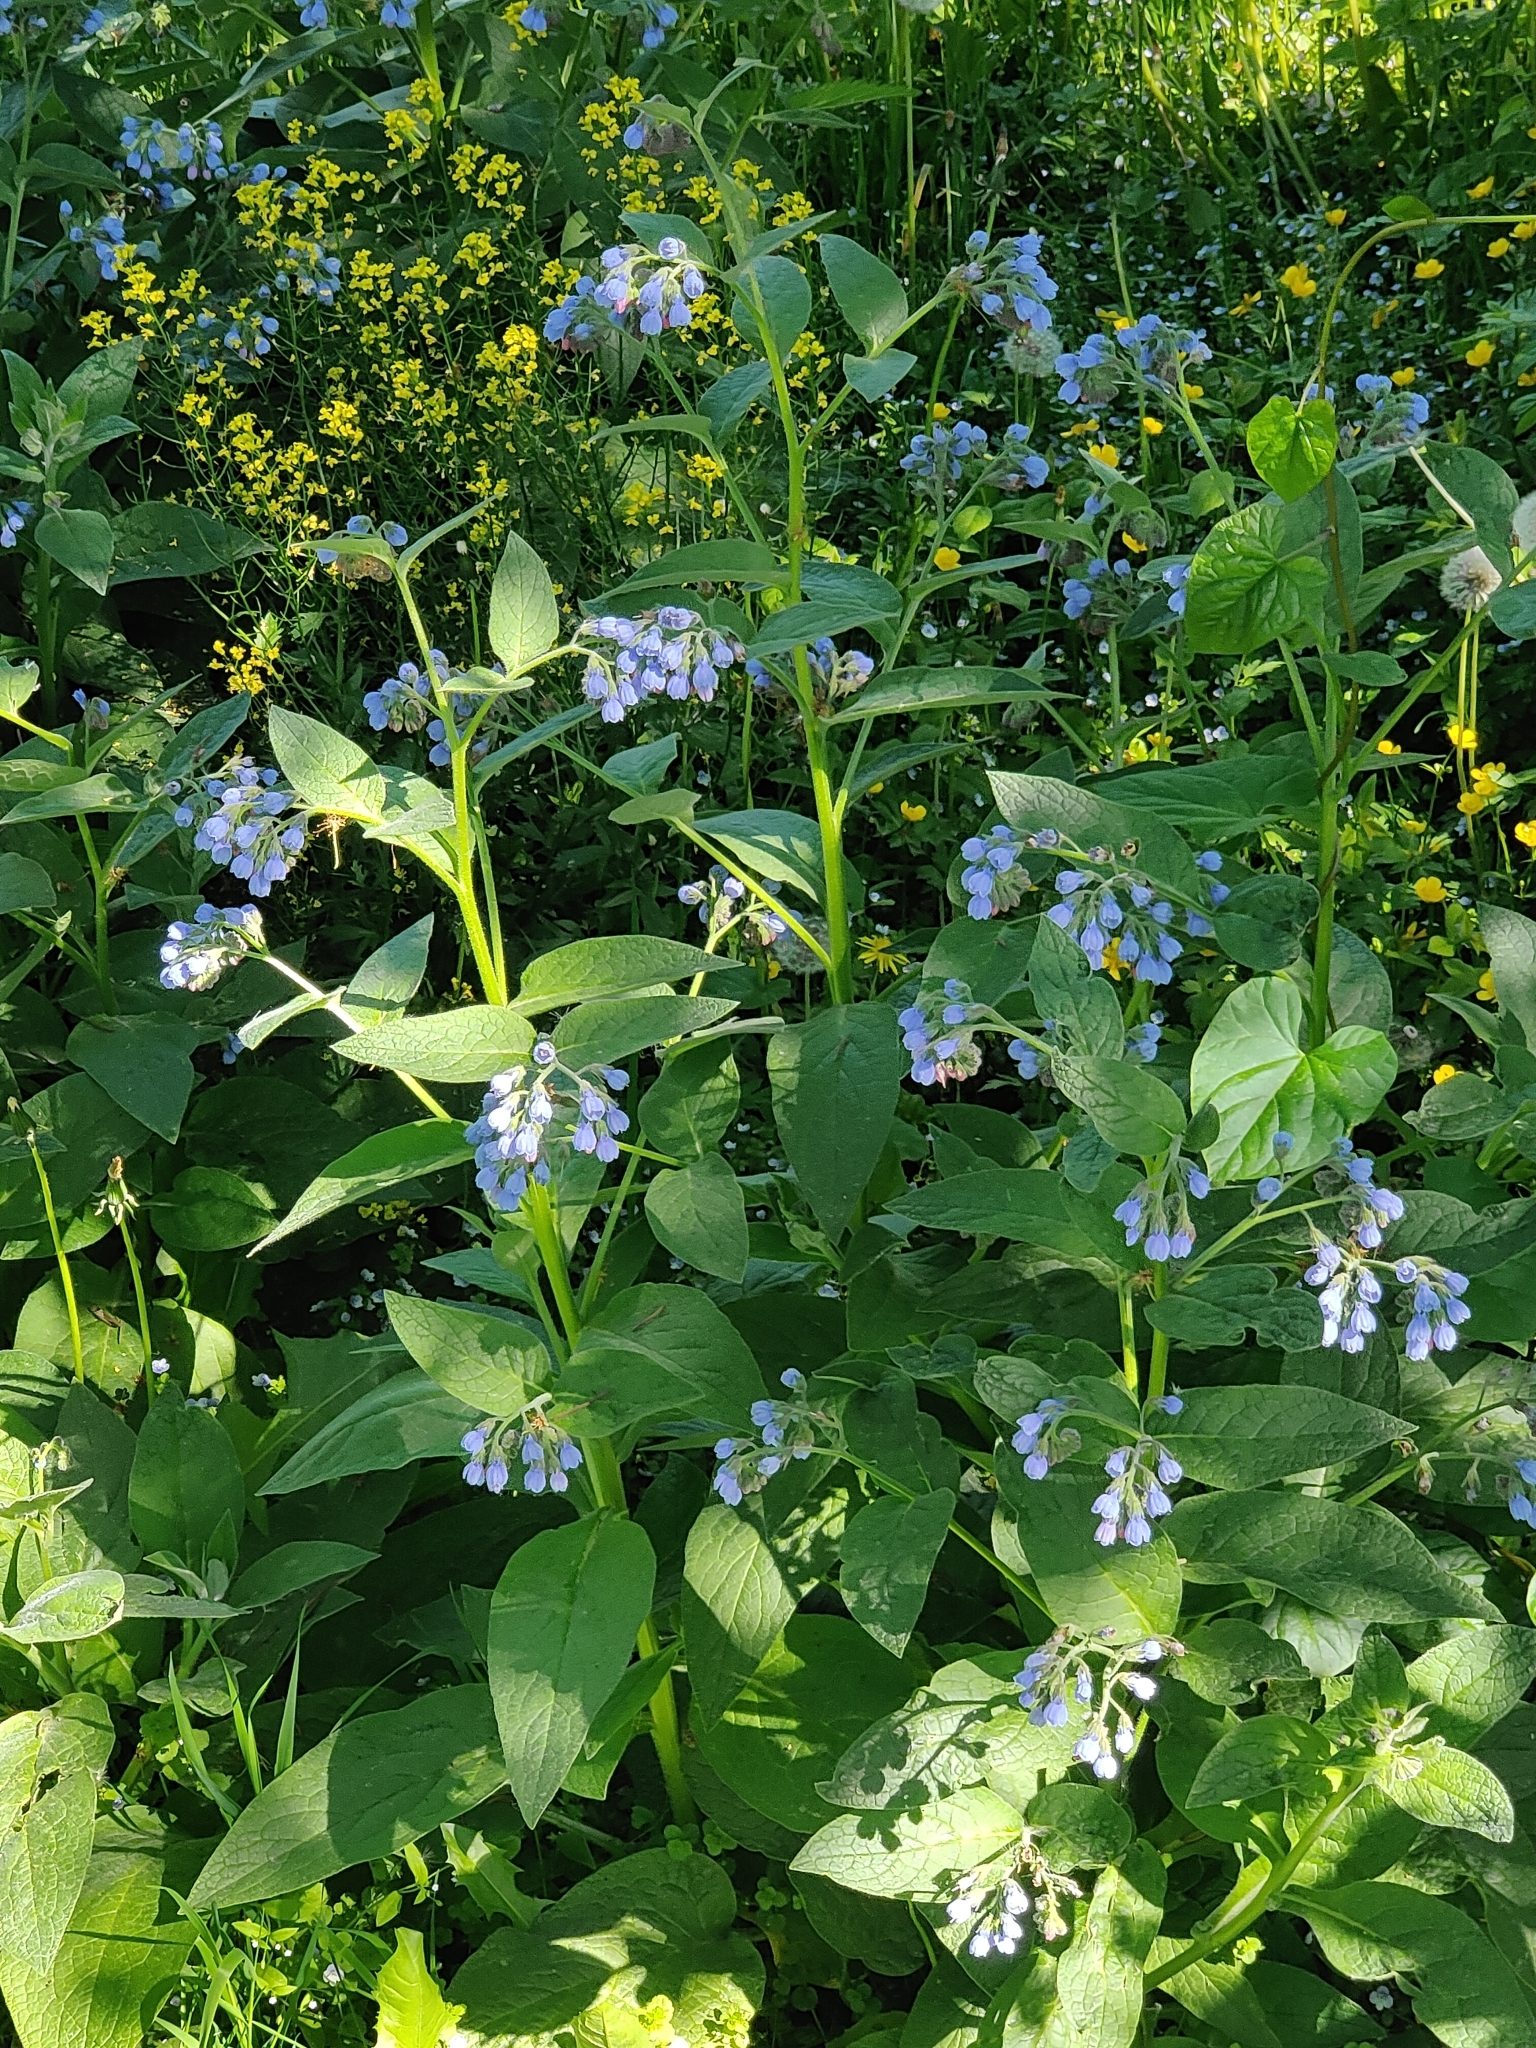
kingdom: Plantae
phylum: Tracheophyta
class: Magnoliopsida
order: Boraginales
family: Boraginaceae
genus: Symphytum
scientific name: Symphytum caucasicum
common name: Caucasian comfrey
